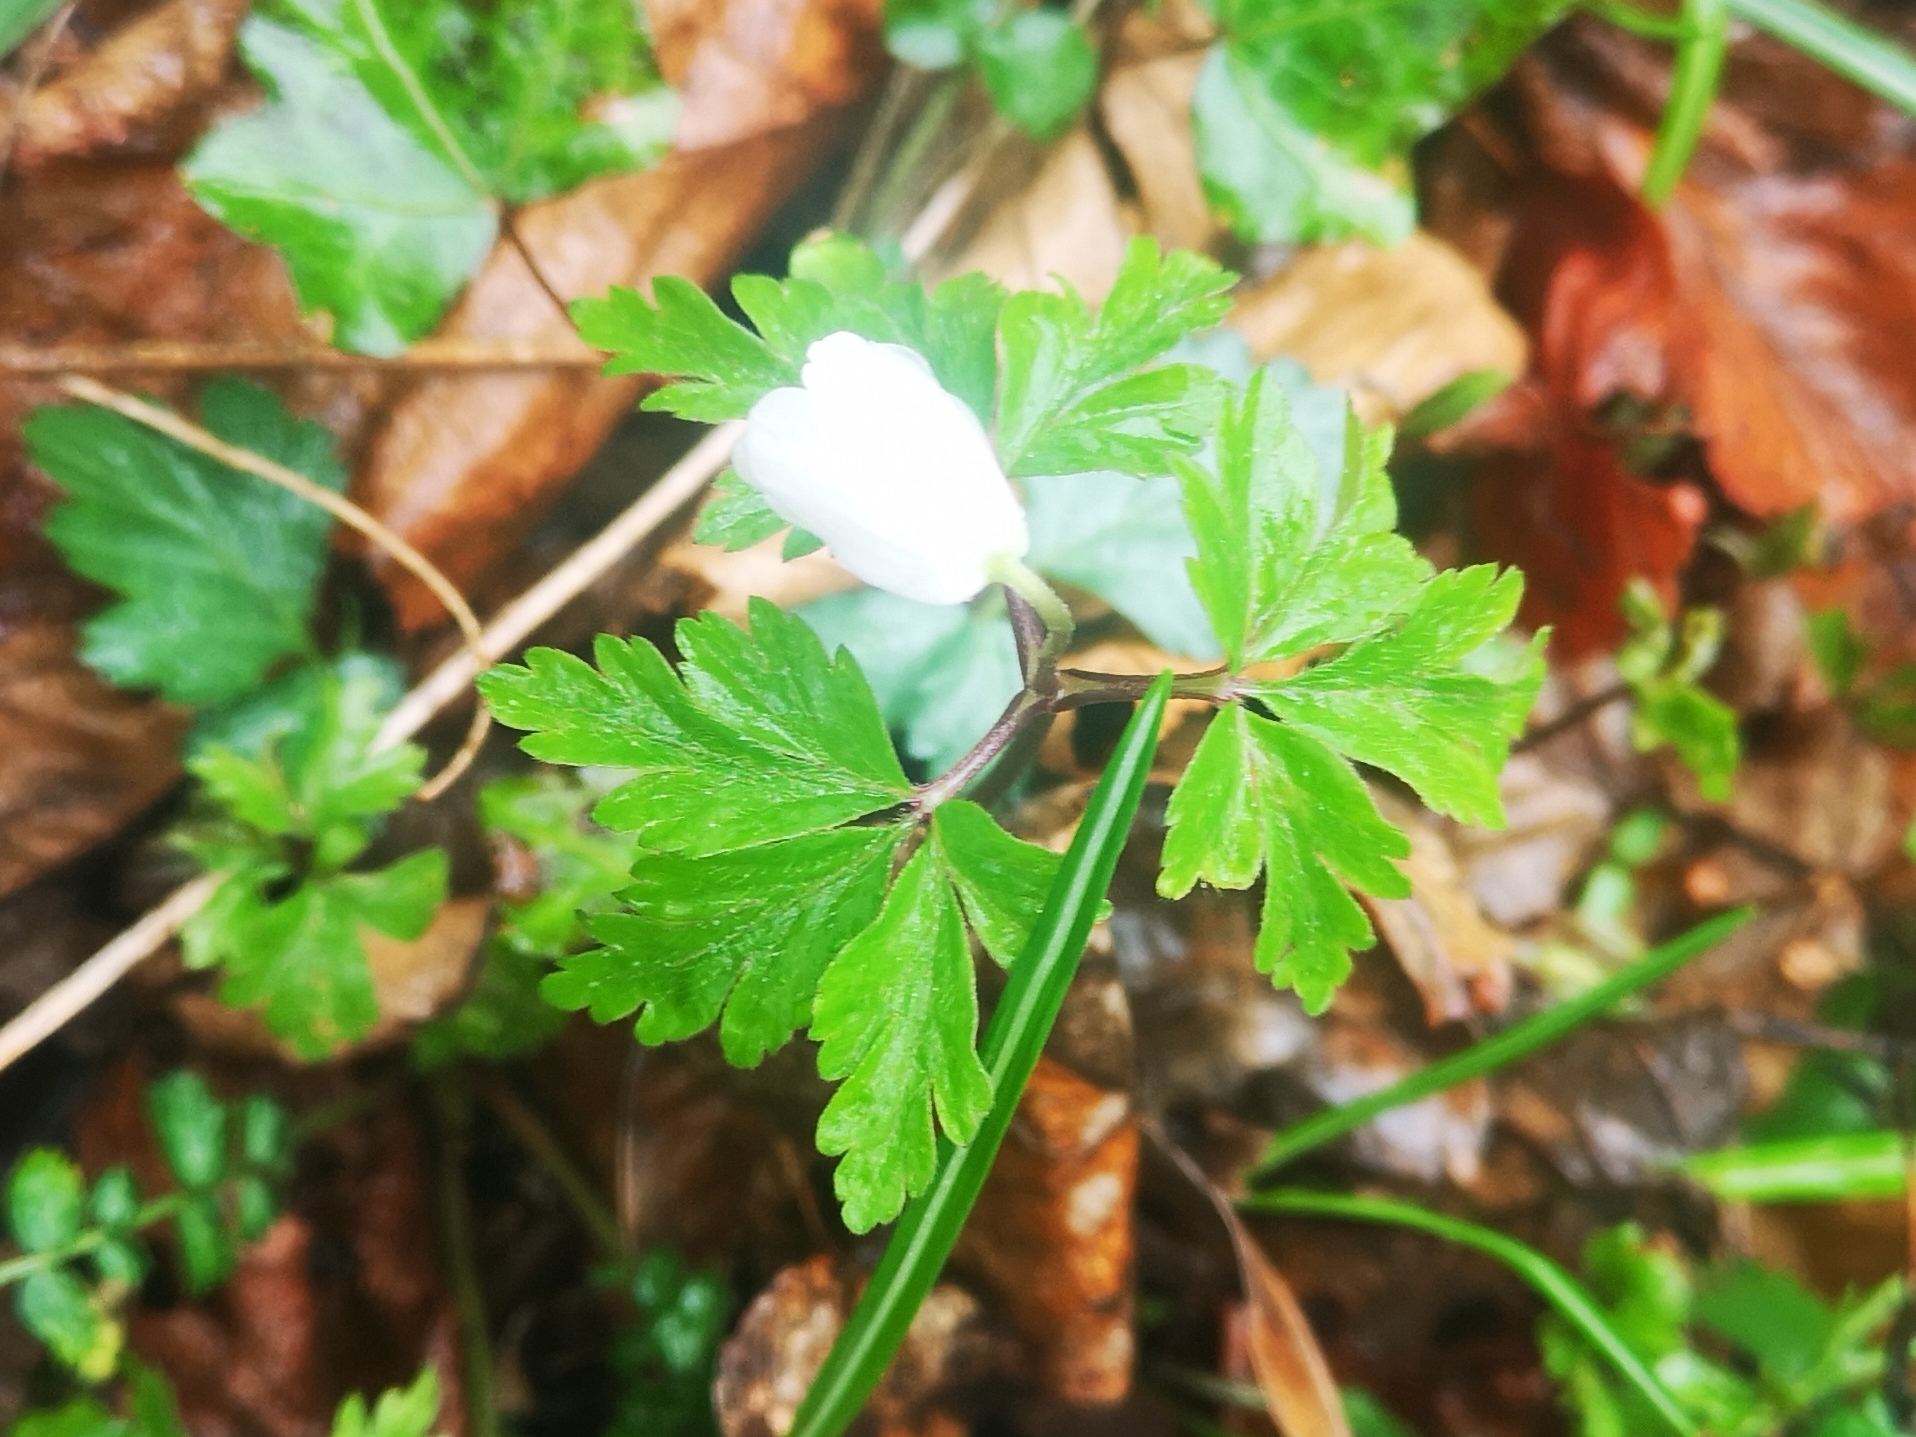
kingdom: Plantae
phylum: Tracheophyta
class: Magnoliopsida
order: Ranunculales
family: Ranunculaceae
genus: Anemone
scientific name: Anemone nemorosa
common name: Wood anemone
